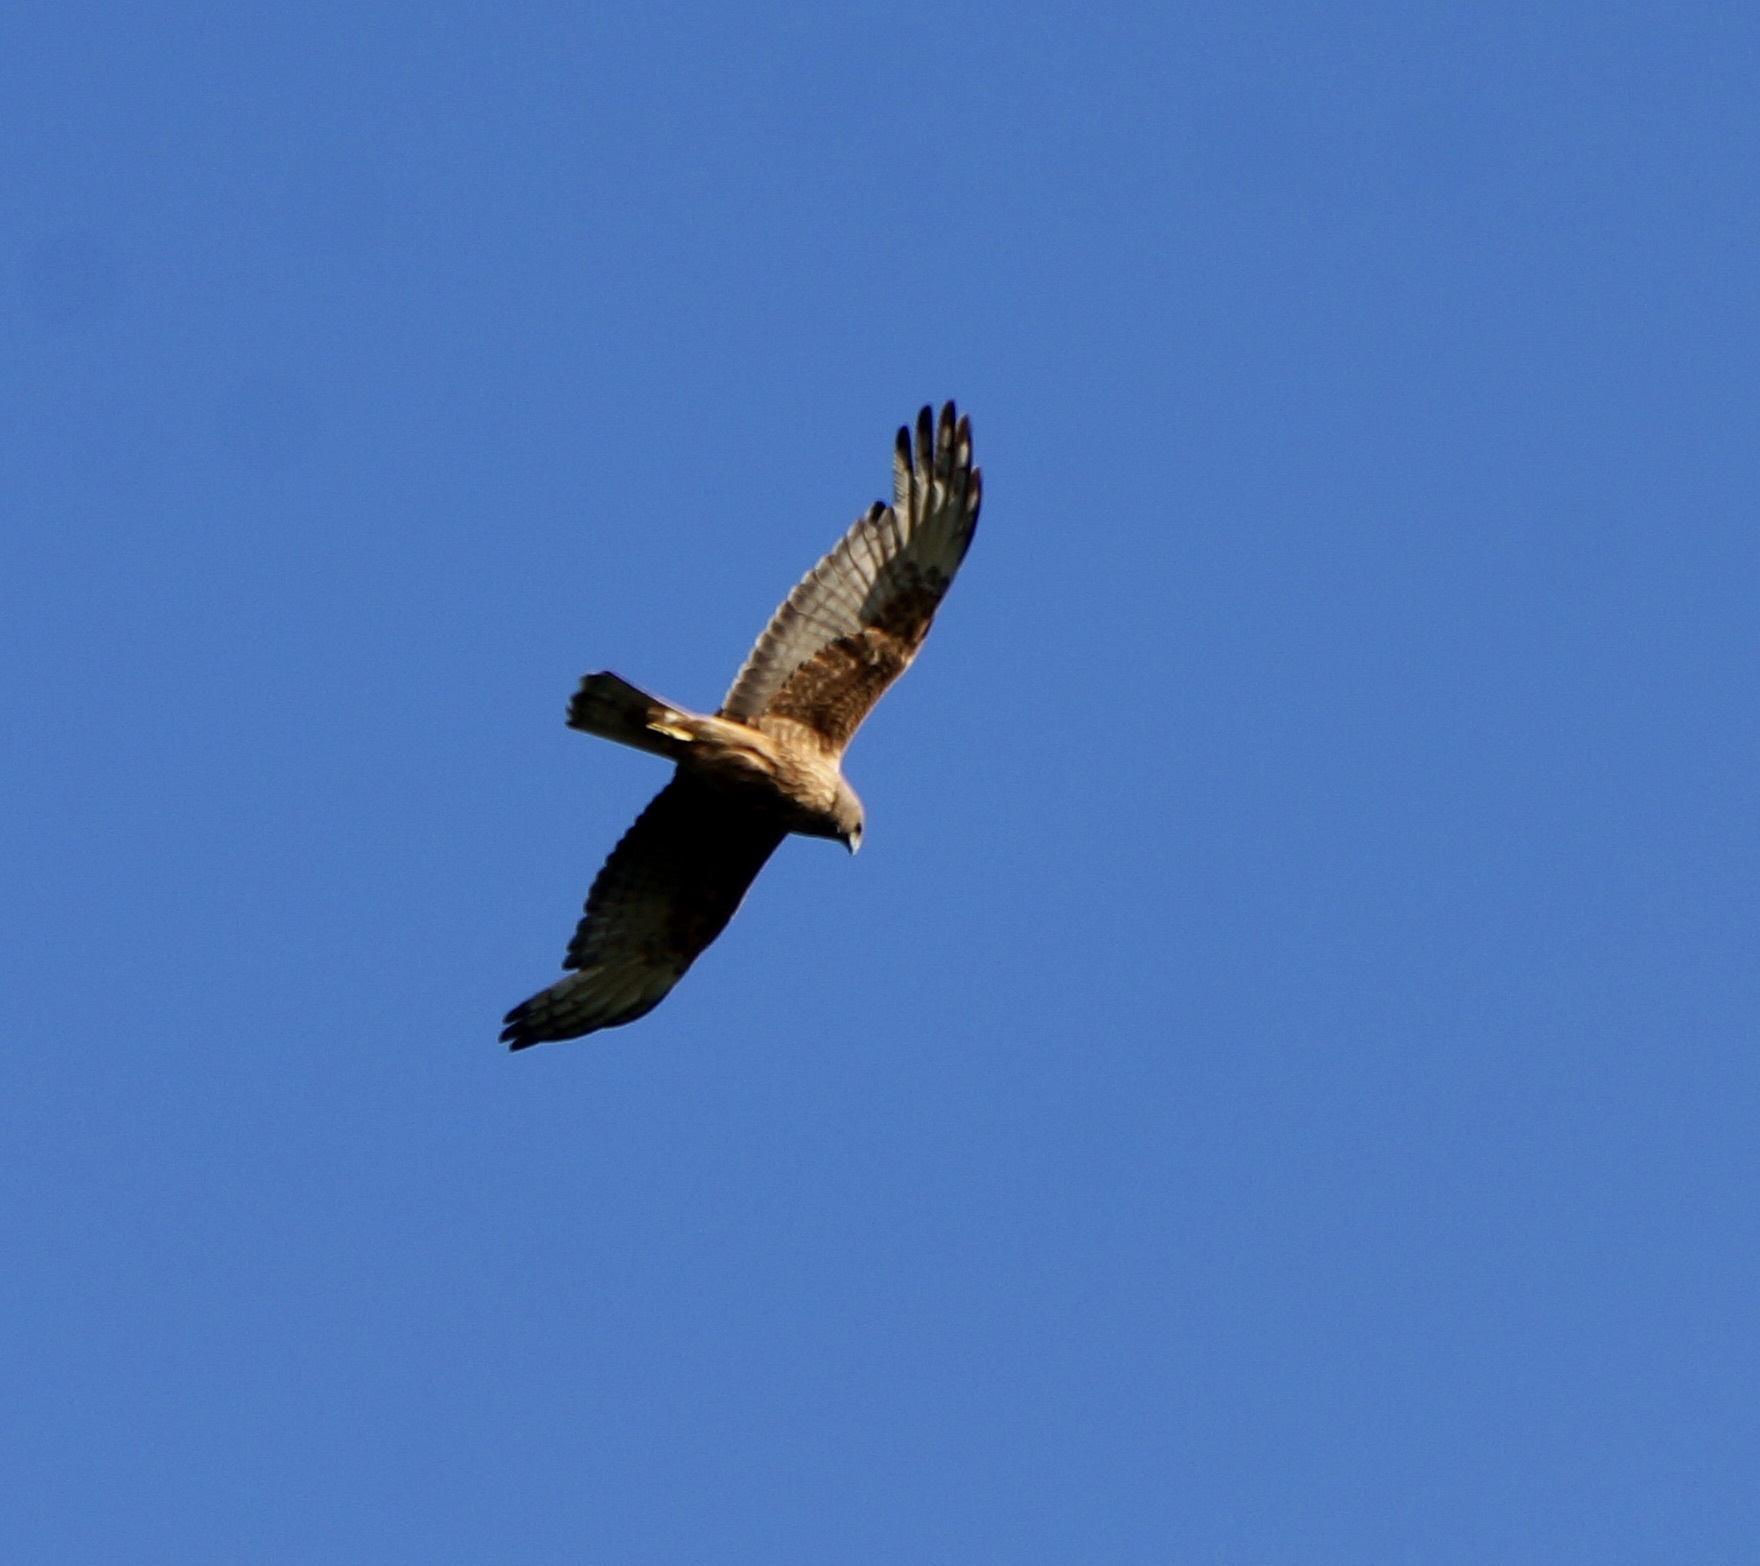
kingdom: Animalia
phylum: Chordata
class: Aves
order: Accipitriformes
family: Accipitridae
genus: Circus
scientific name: Circus approximans
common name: Swamp harrier
